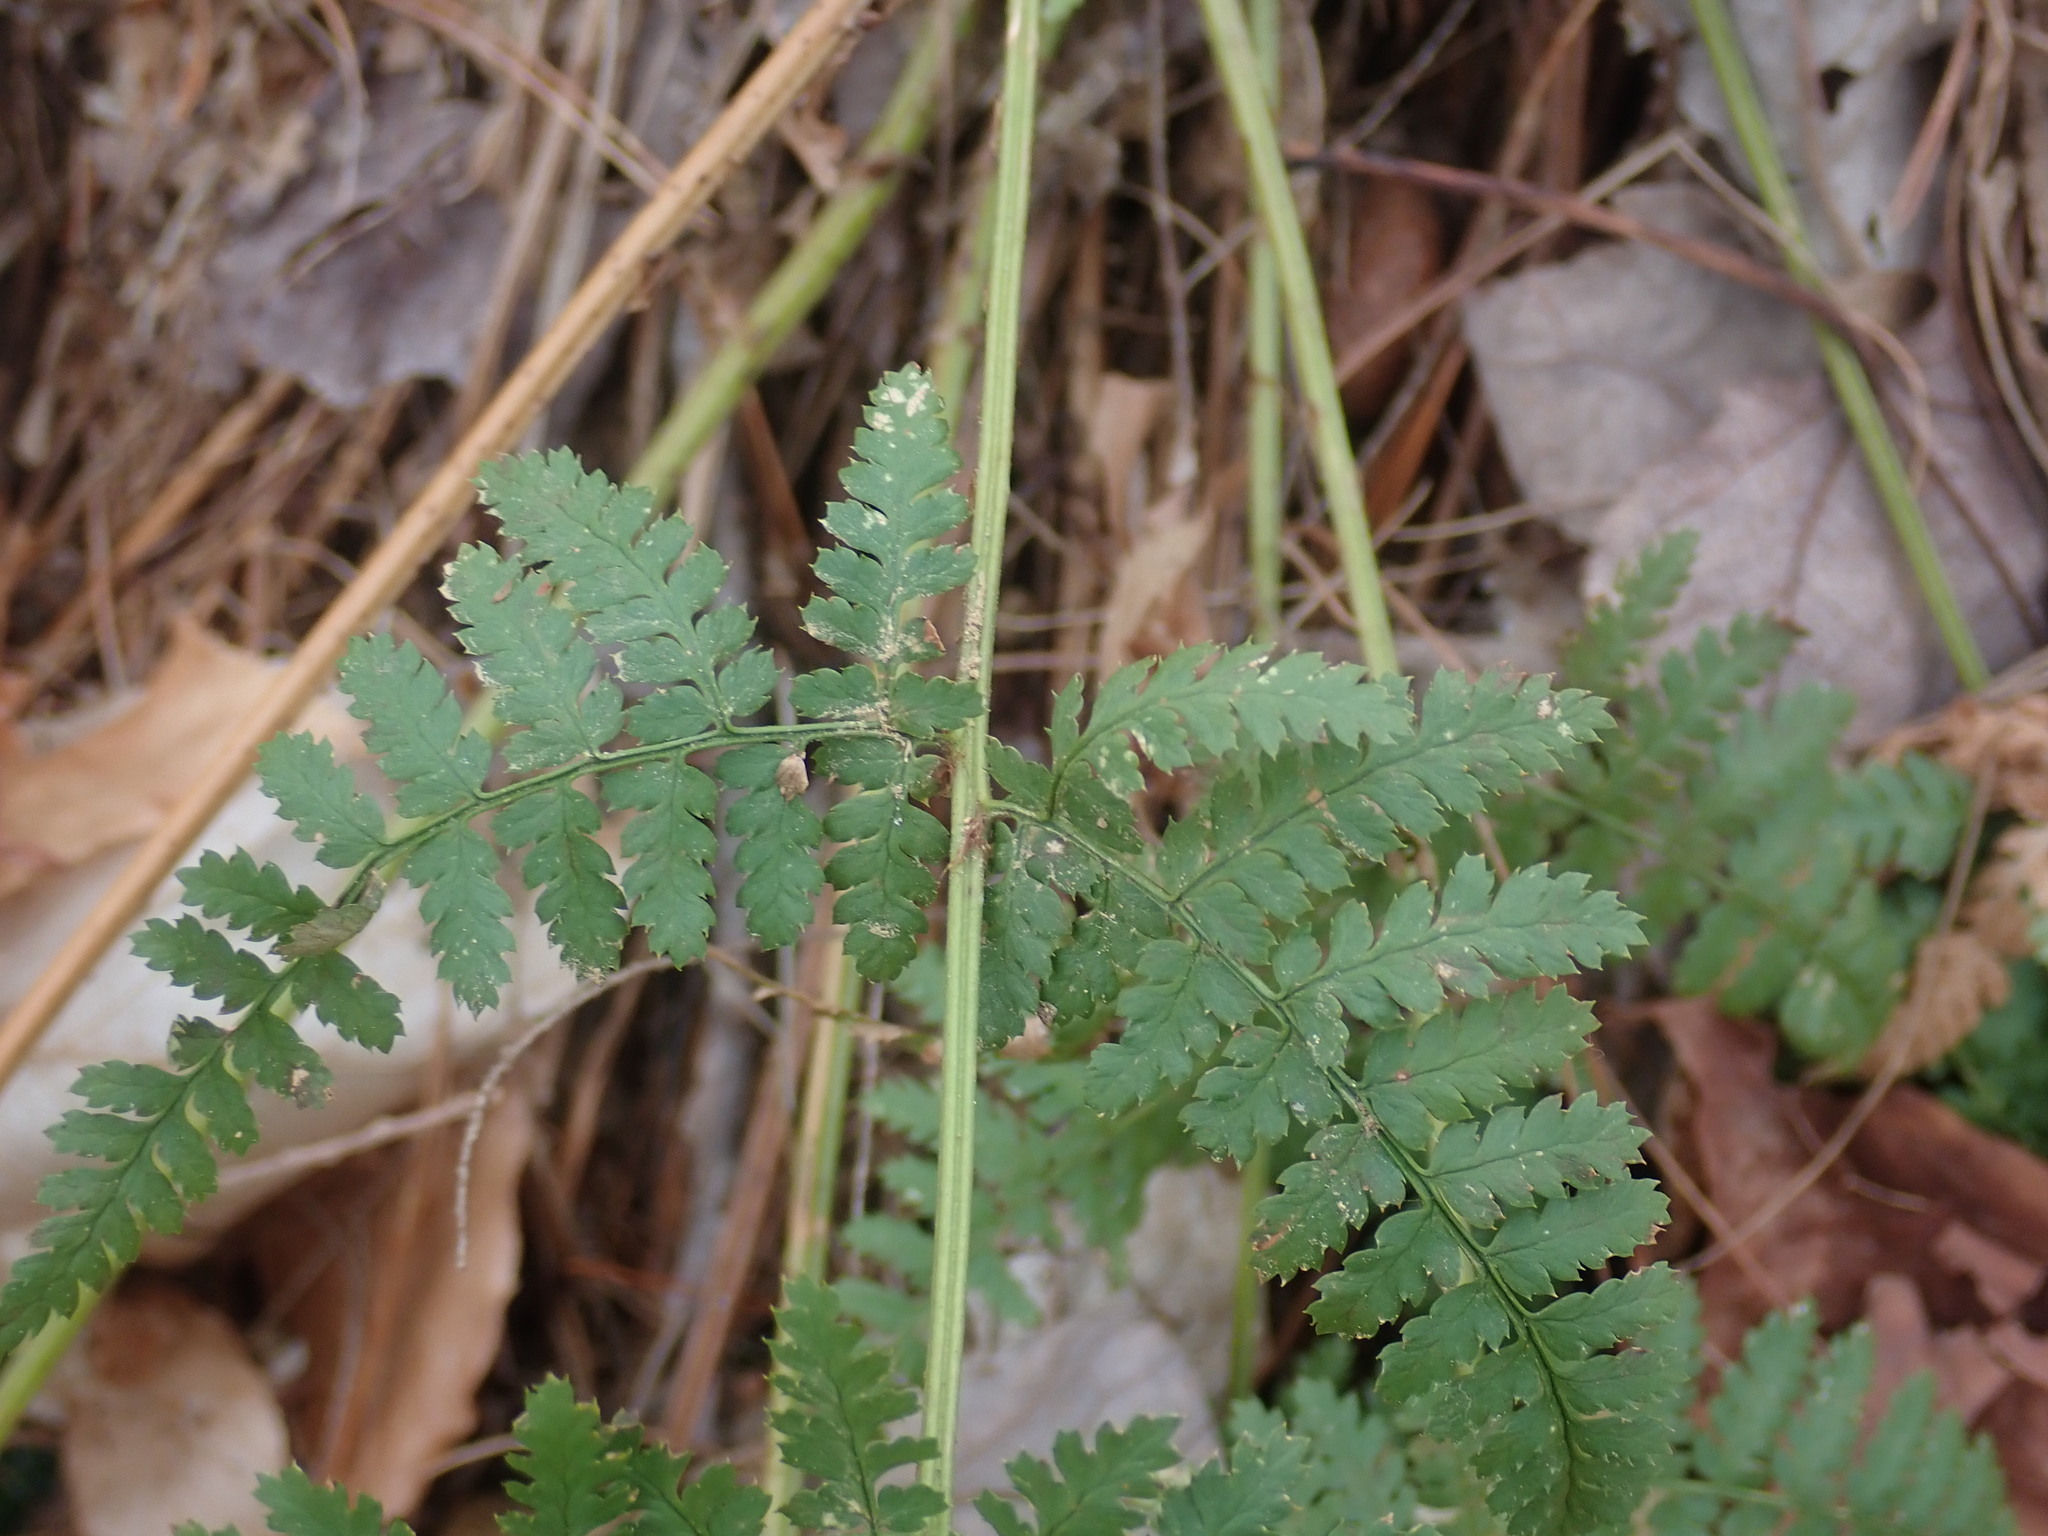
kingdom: Plantae
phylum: Tracheophyta
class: Polypodiopsida
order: Polypodiales
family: Dryopteridaceae
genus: Dryopteris
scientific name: Dryopteris intermedia
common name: Evergreen wood fern
